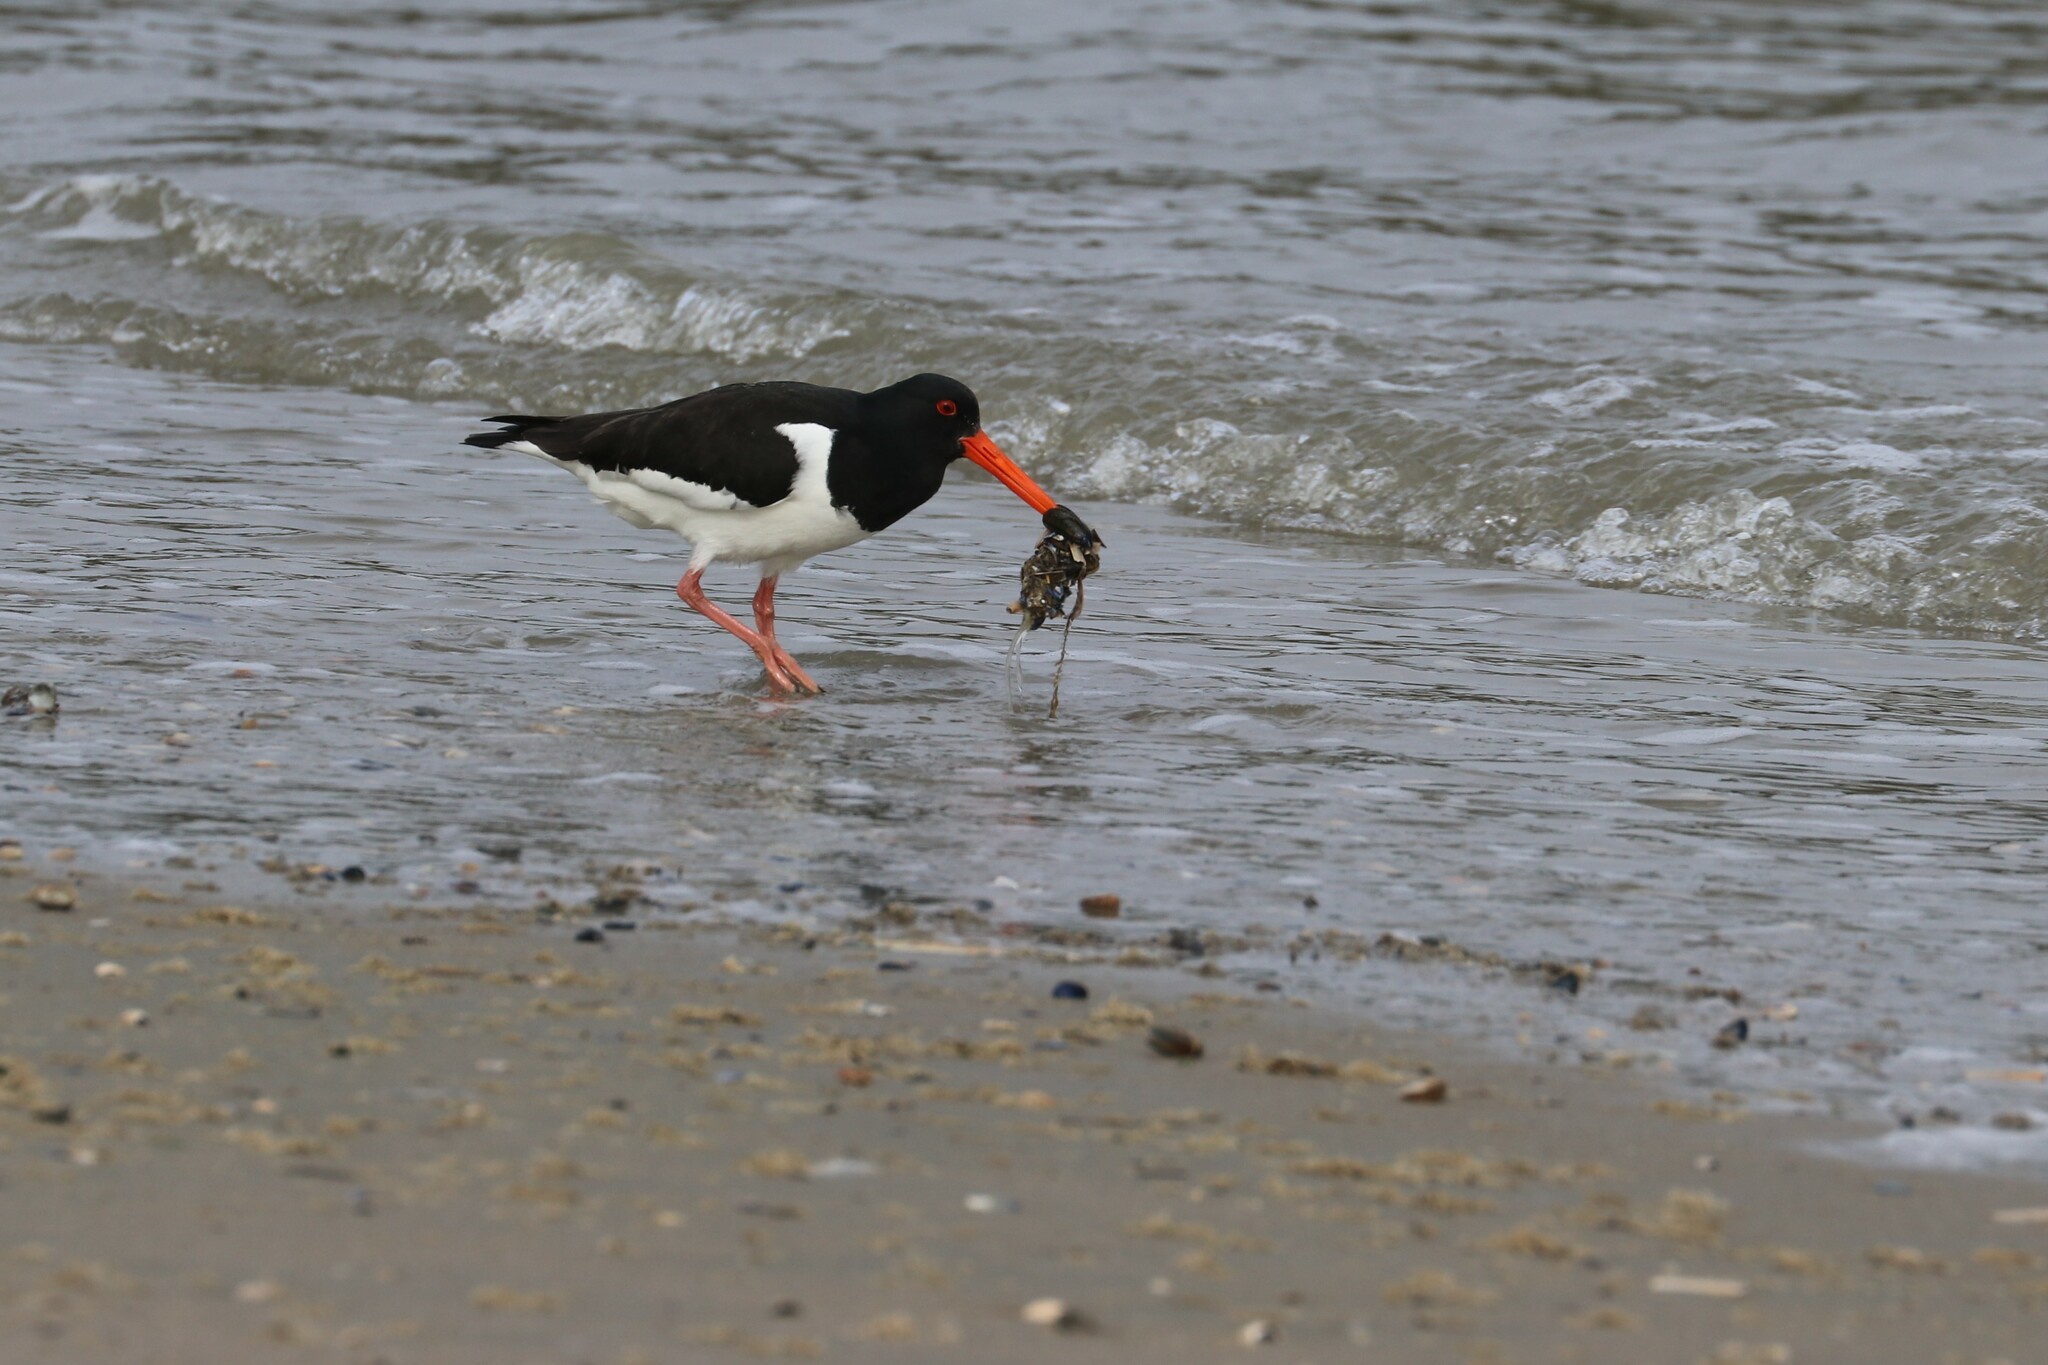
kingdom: Animalia
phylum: Chordata
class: Aves
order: Charadriiformes
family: Haematopodidae
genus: Haematopus
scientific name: Haematopus ostralegus
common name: Eurasian oystercatcher
